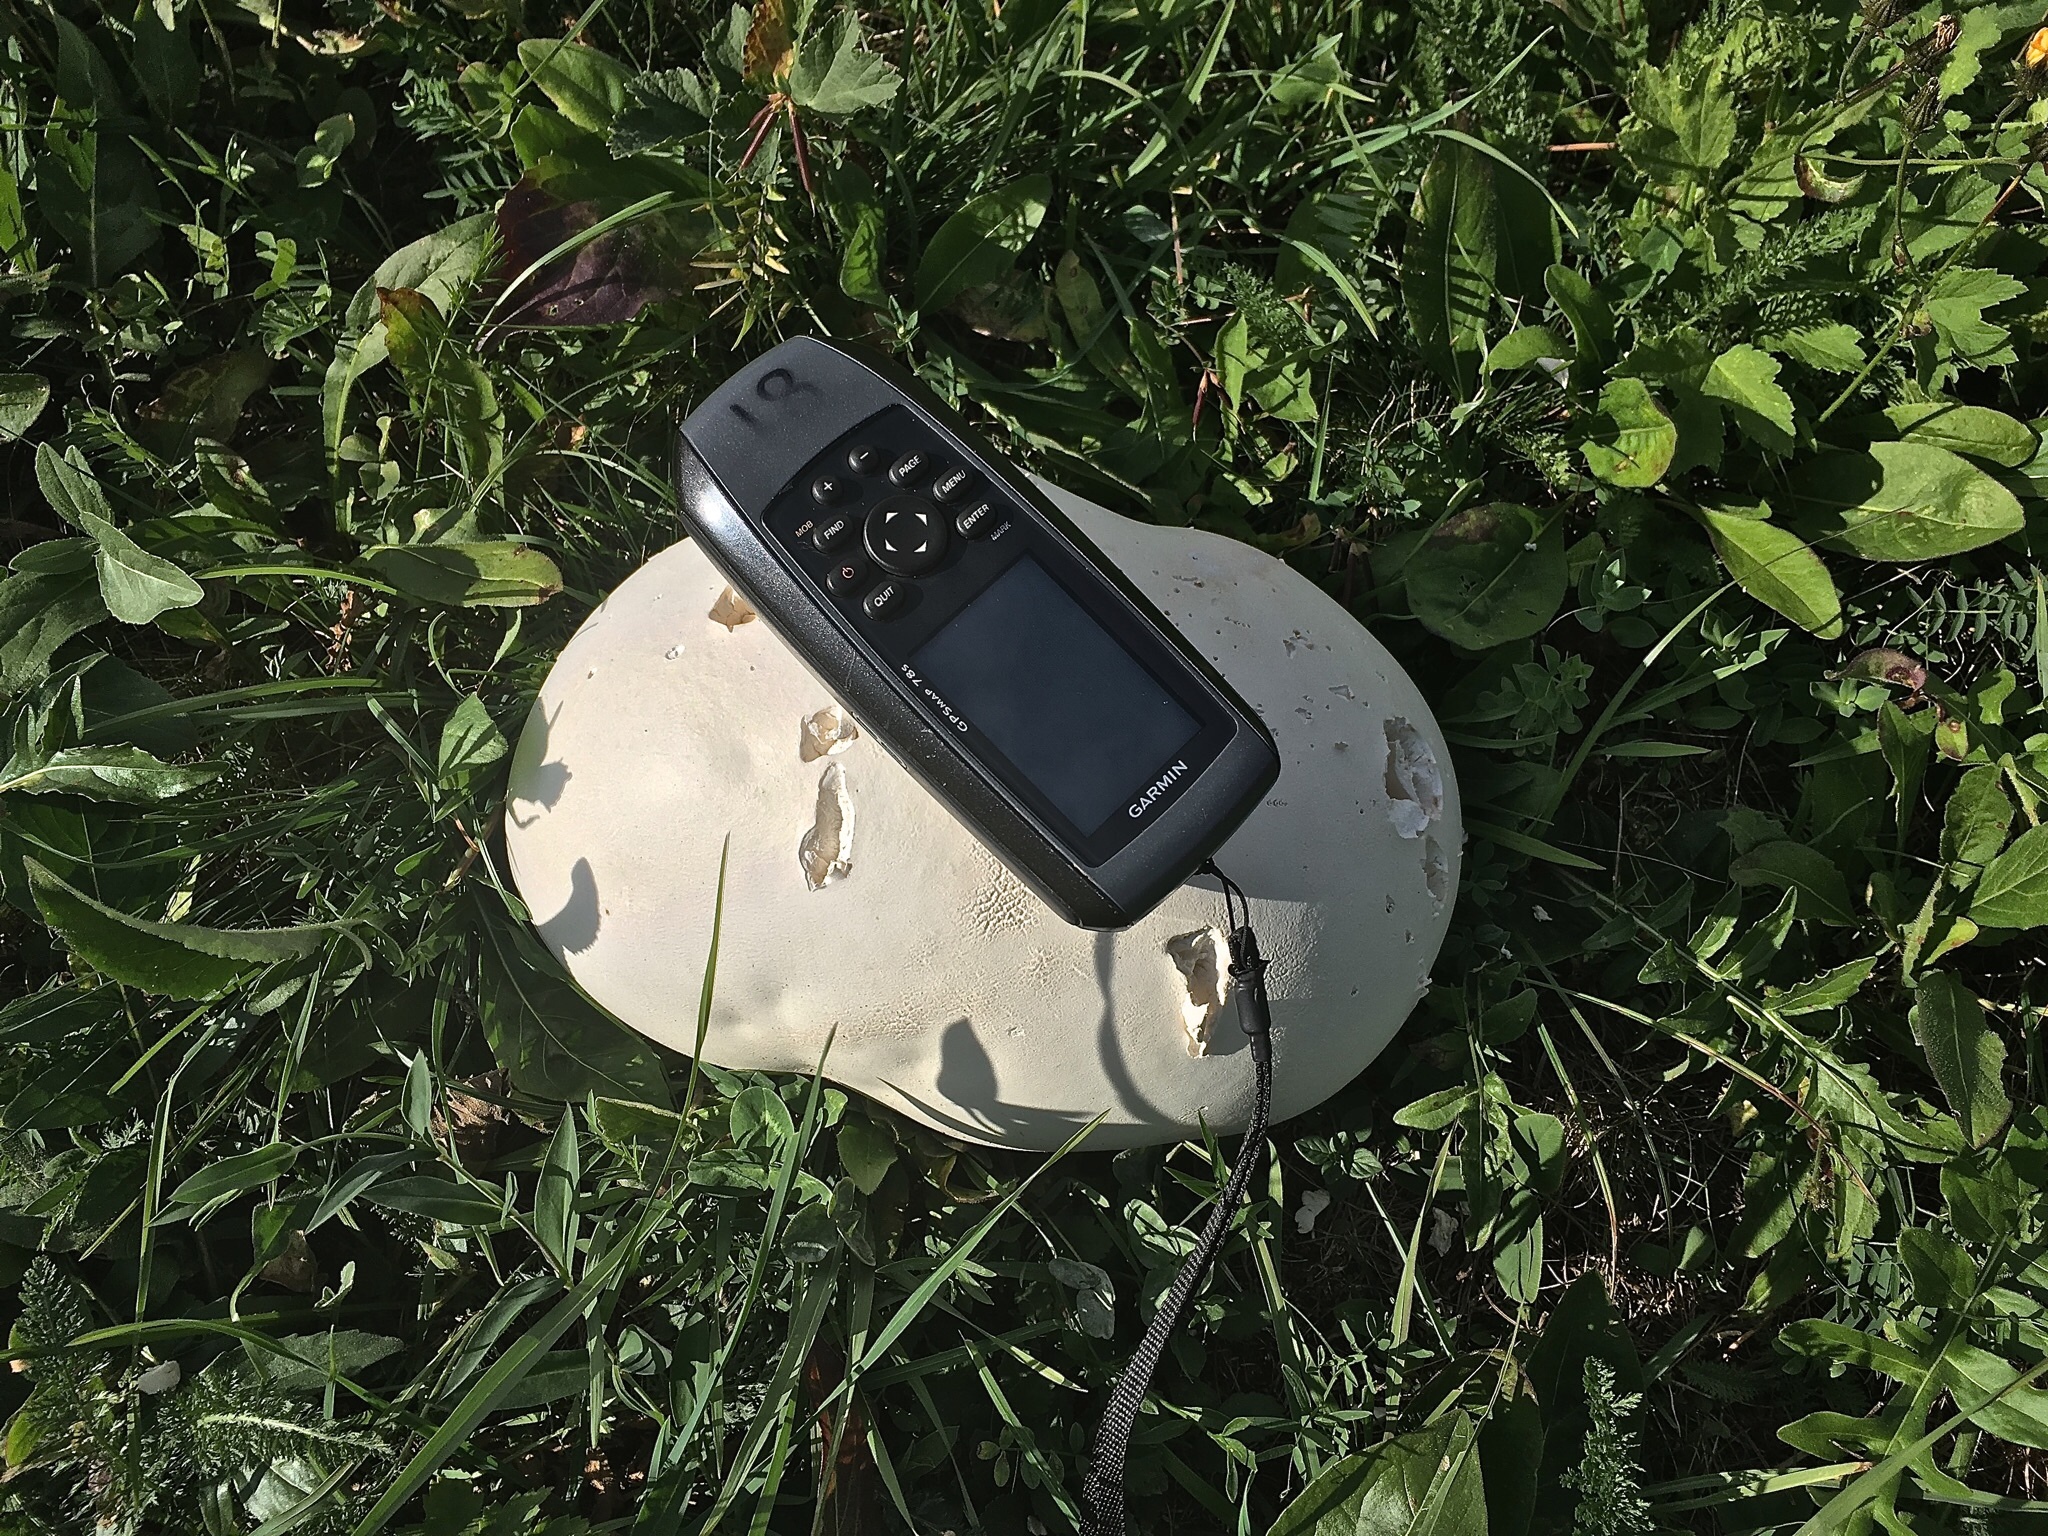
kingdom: Fungi
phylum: Basidiomycota
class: Agaricomycetes
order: Agaricales
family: Lycoperdaceae
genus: Calvatia
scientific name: Calvatia gigantea
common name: Giant puffball
